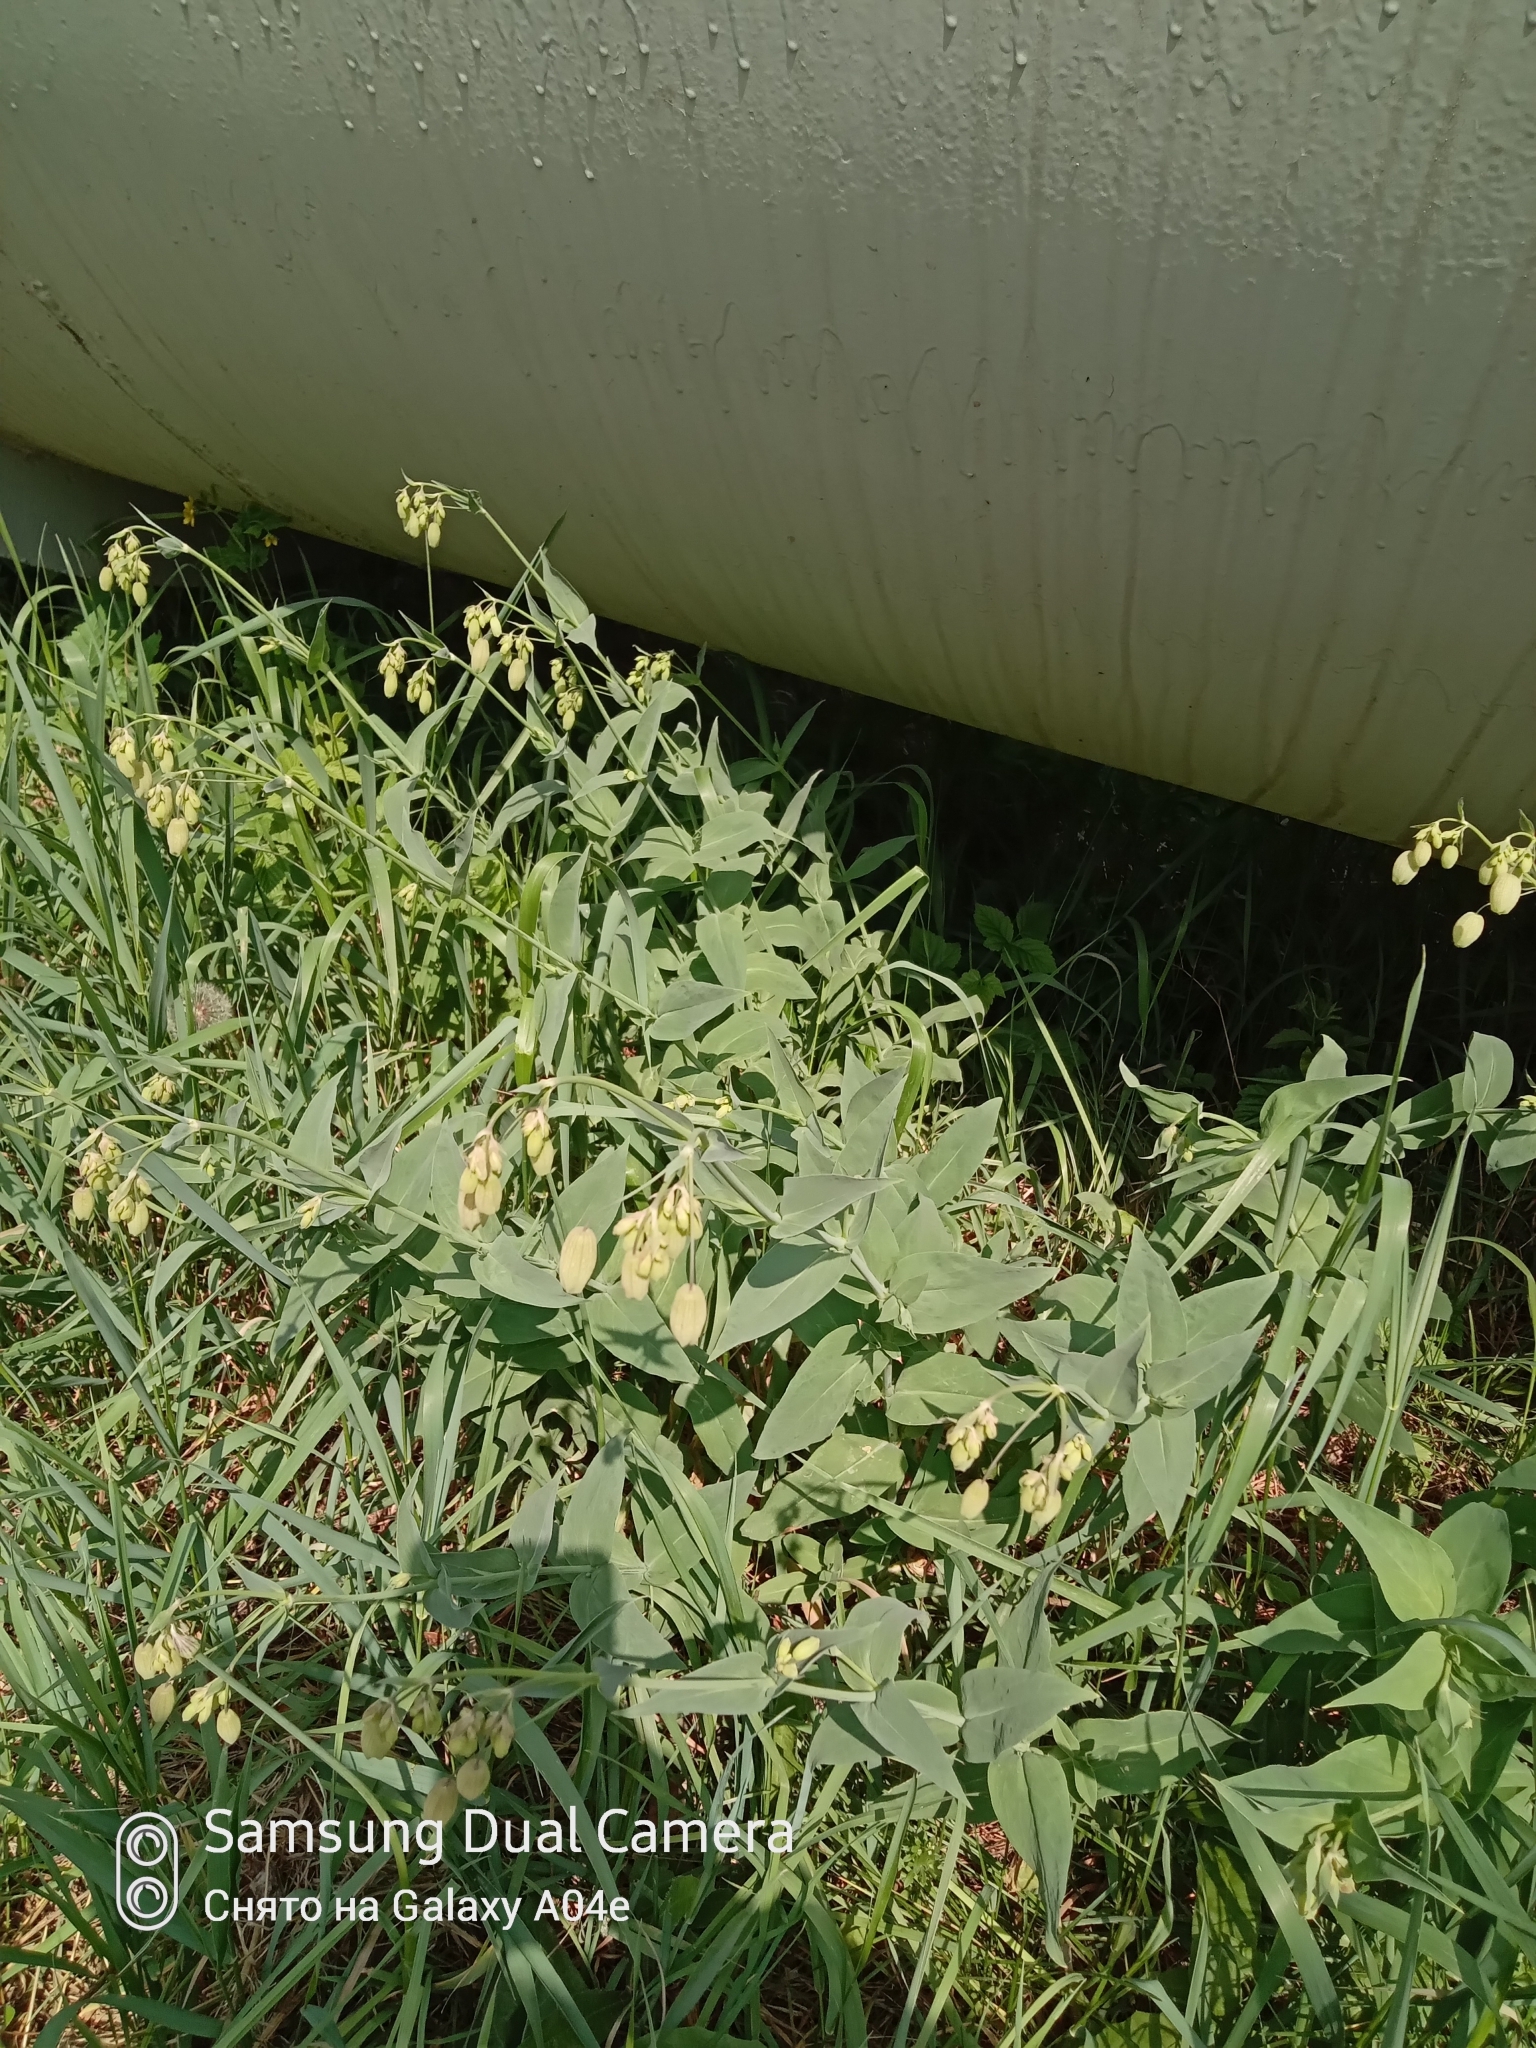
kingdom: Plantae
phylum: Tracheophyta
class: Magnoliopsida
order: Caryophyllales
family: Caryophyllaceae
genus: Silene
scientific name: Silene vulgaris
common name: Bladder campion
